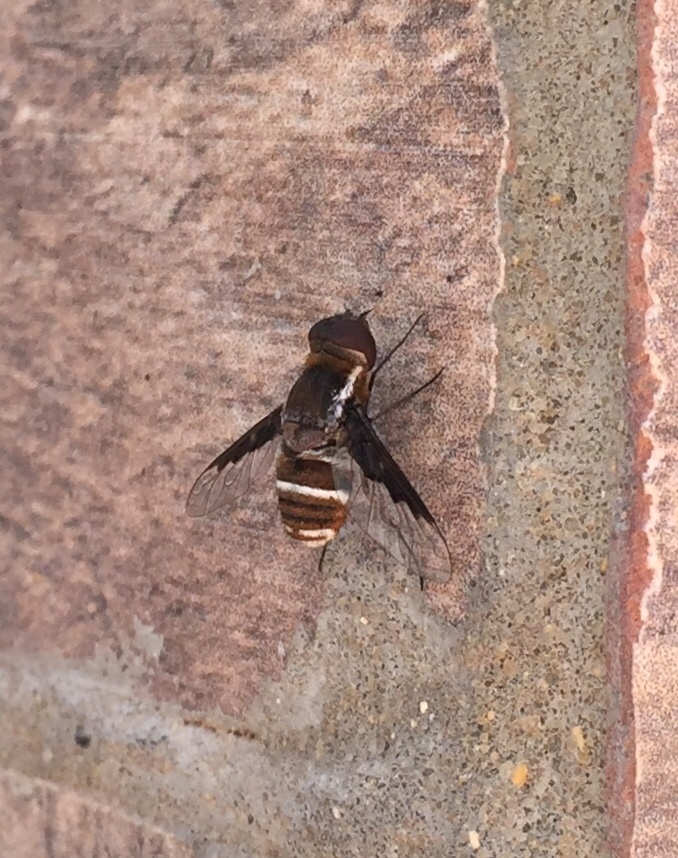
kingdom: Animalia
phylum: Arthropoda
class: Insecta
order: Diptera
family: Bombyliidae
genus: Exhyalanthrax
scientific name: Exhyalanthrax simonae
